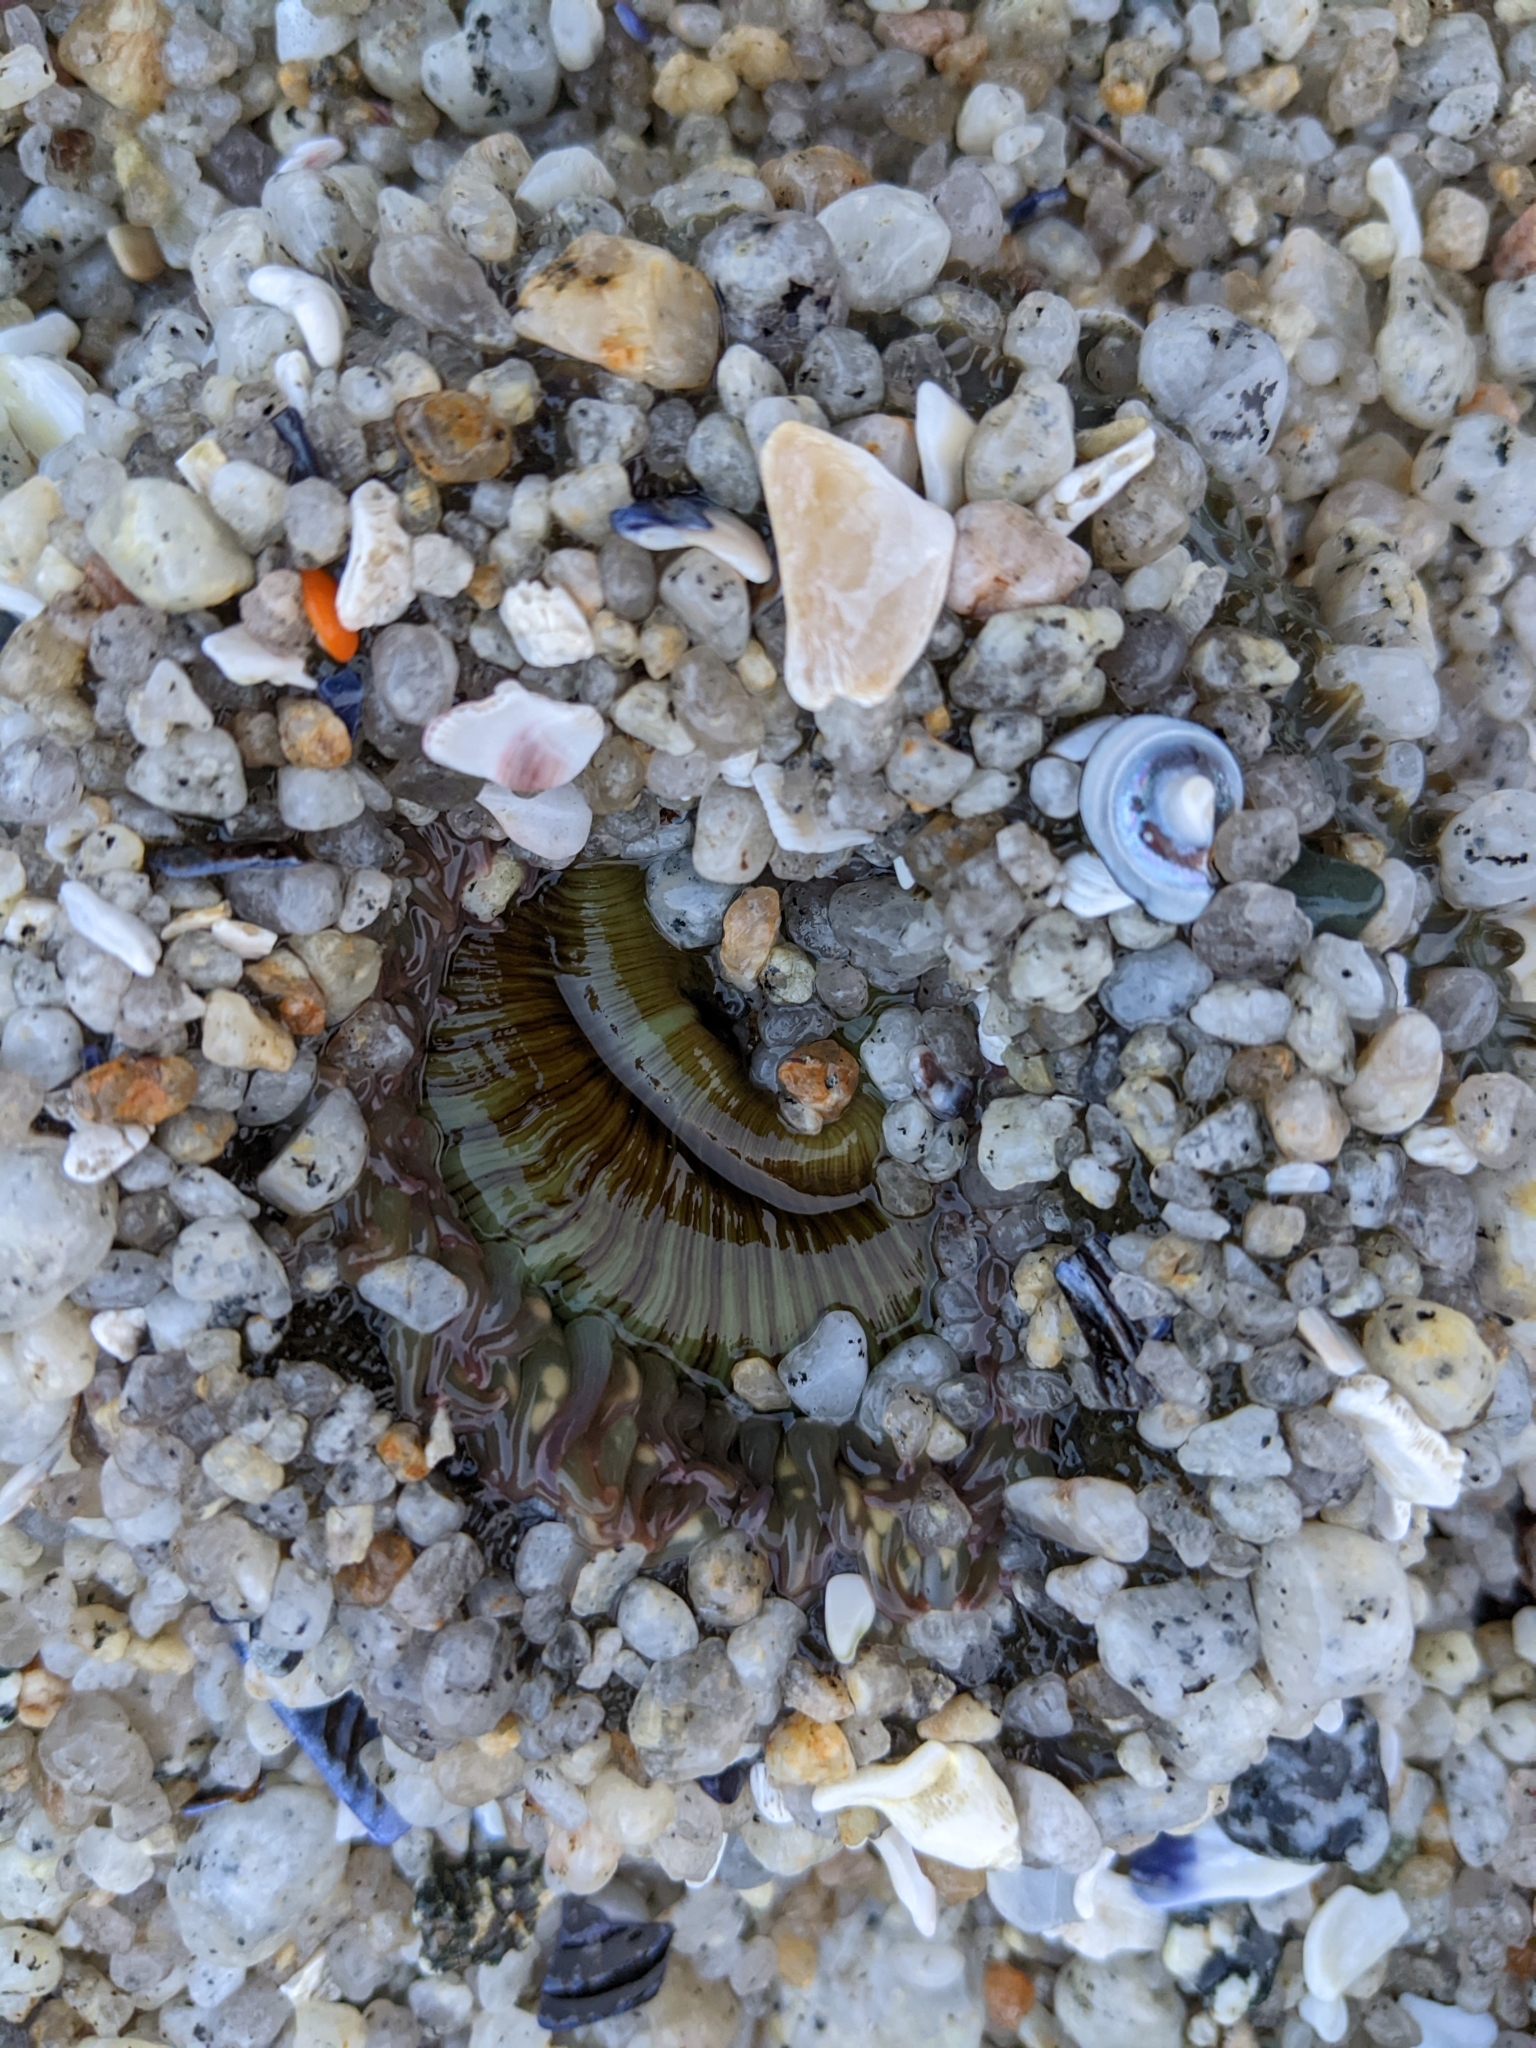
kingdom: Animalia
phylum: Cnidaria
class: Anthozoa
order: Actiniaria
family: Actiniidae
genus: Anthopleura
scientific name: Anthopleura sola
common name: Sun anemone
